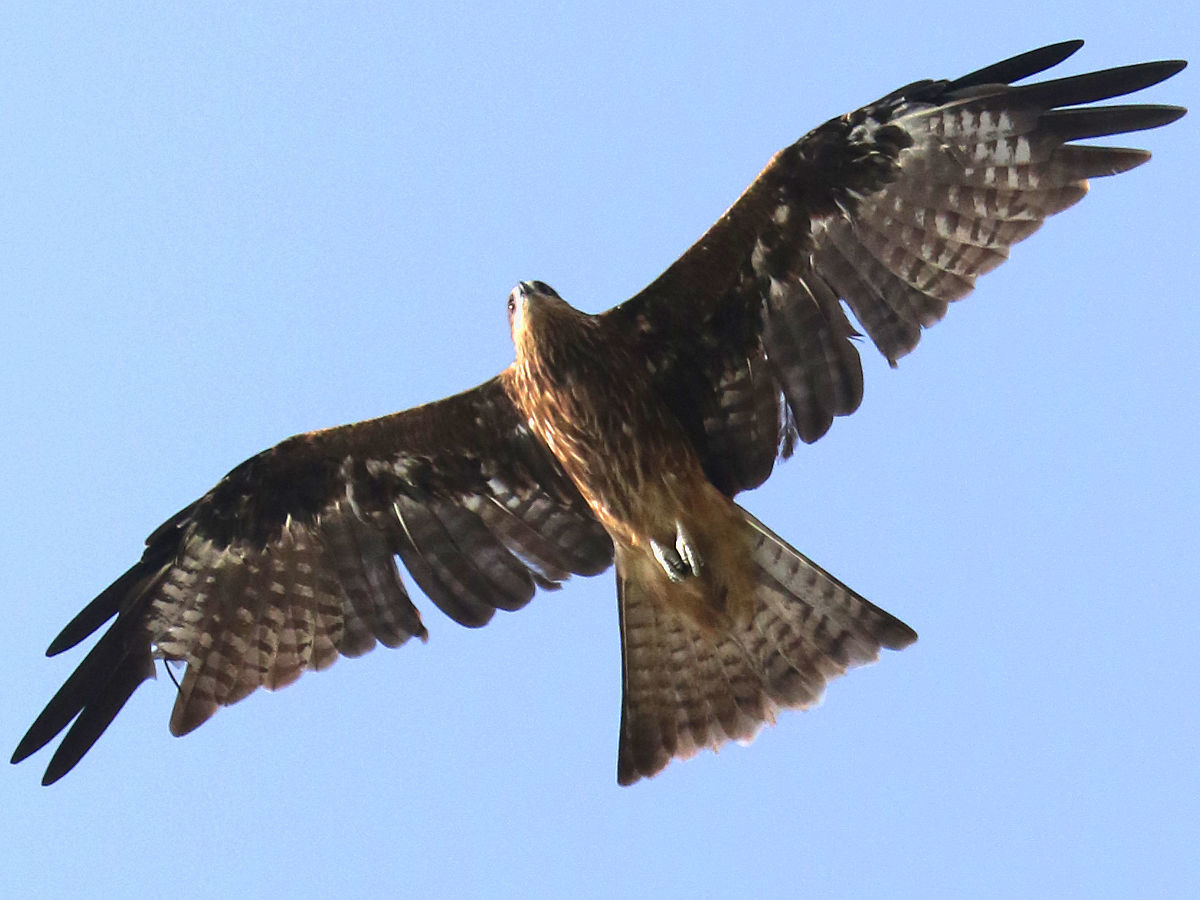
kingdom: Animalia
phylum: Chordata
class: Aves
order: Accipitriformes
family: Accipitridae
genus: Milvus
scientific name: Milvus migrans
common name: Black kite
